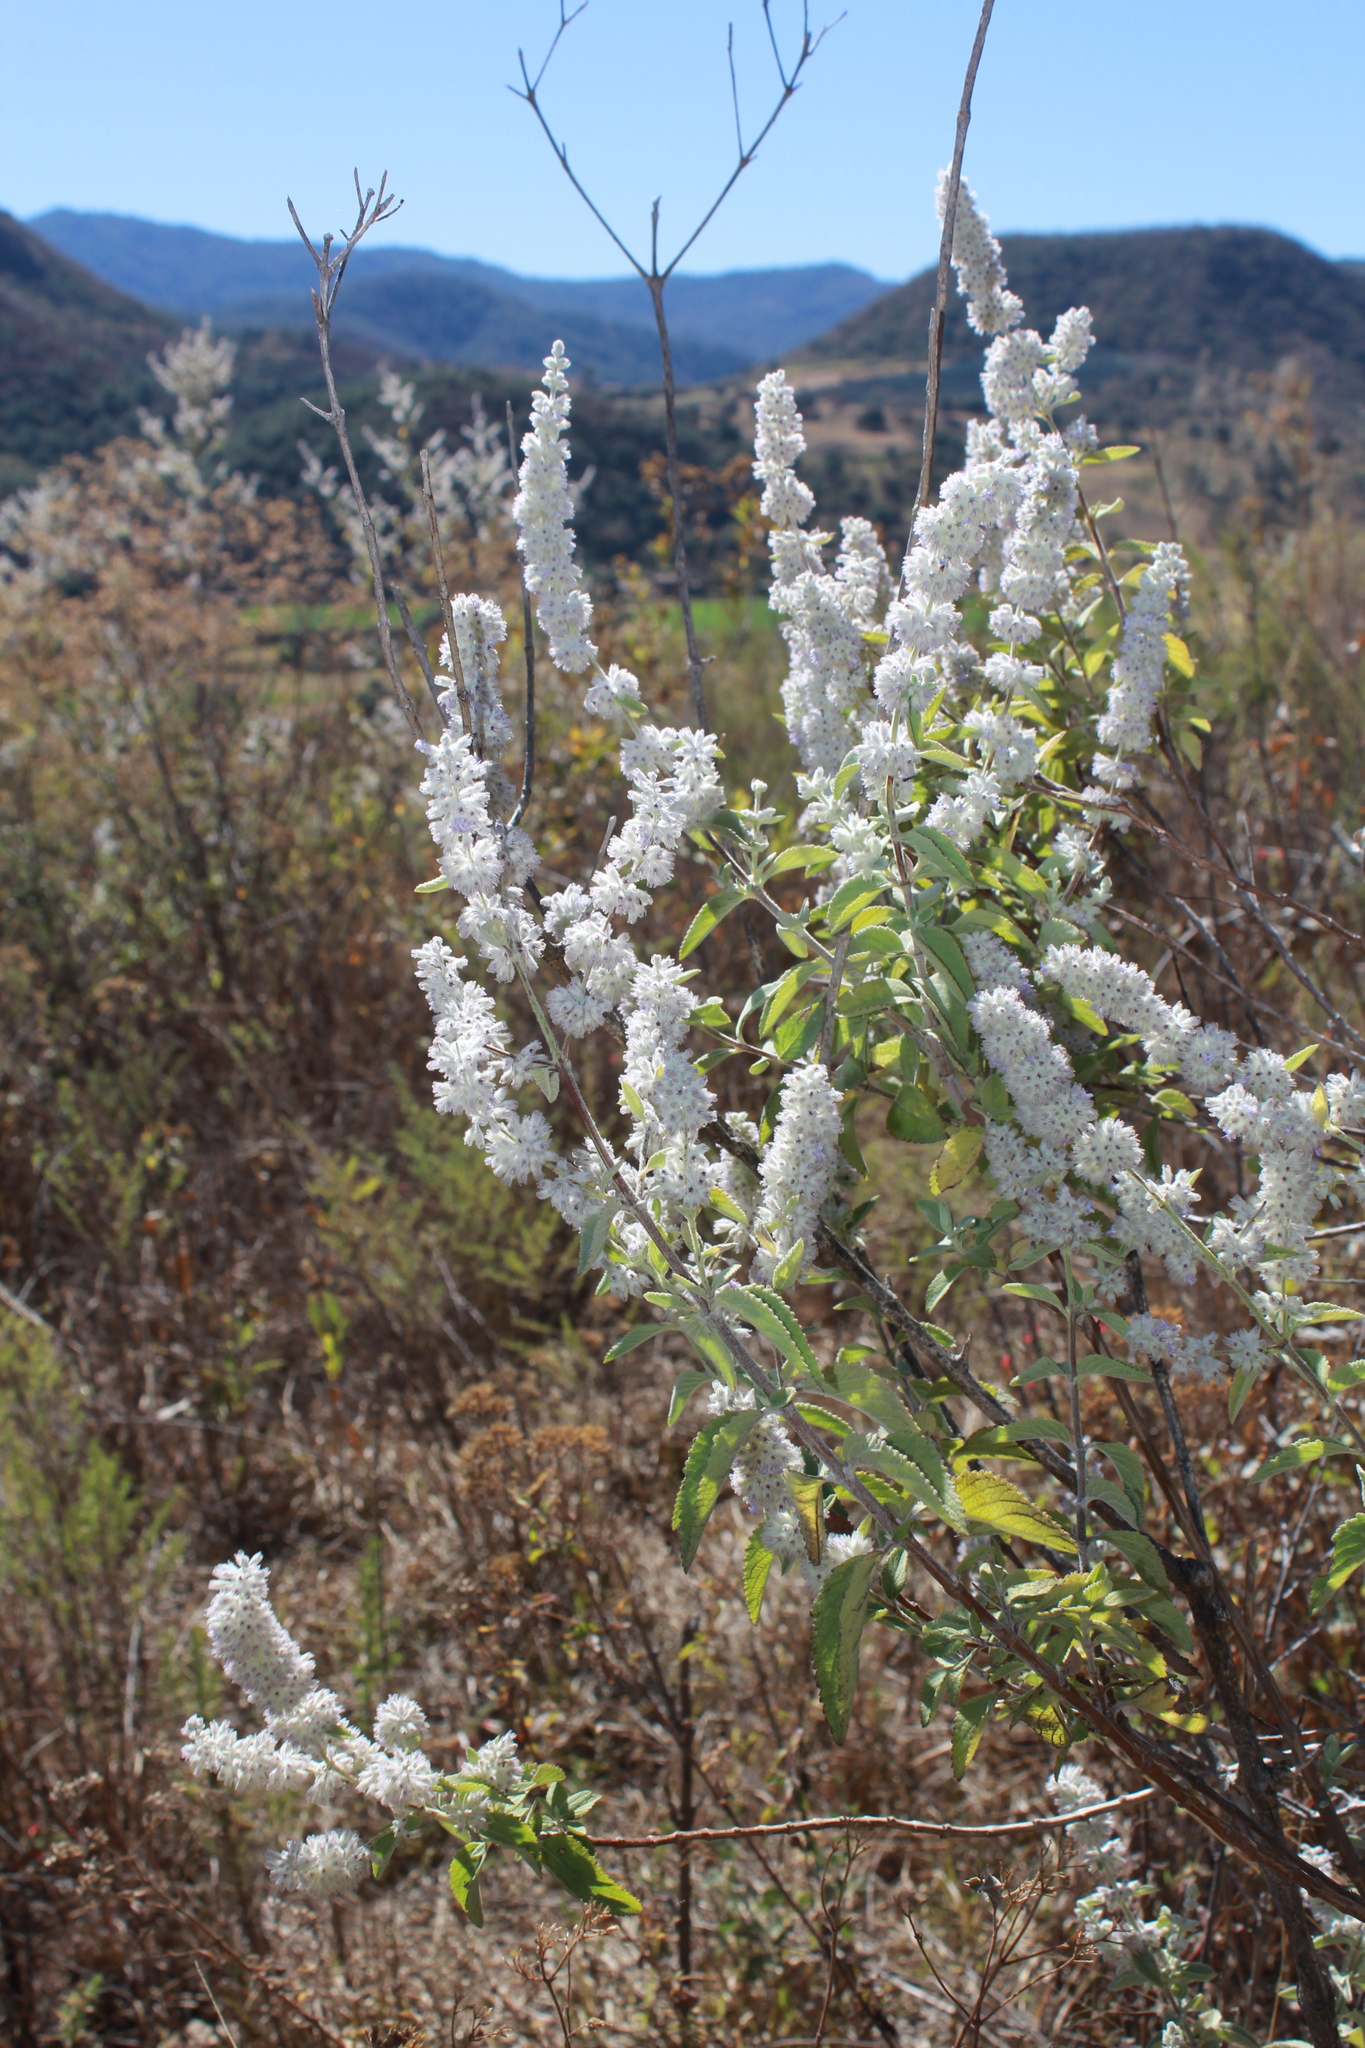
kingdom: Plantae
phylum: Tracheophyta
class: Magnoliopsida
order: Lamiales
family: Lamiaceae
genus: Condea
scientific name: Condea albida
